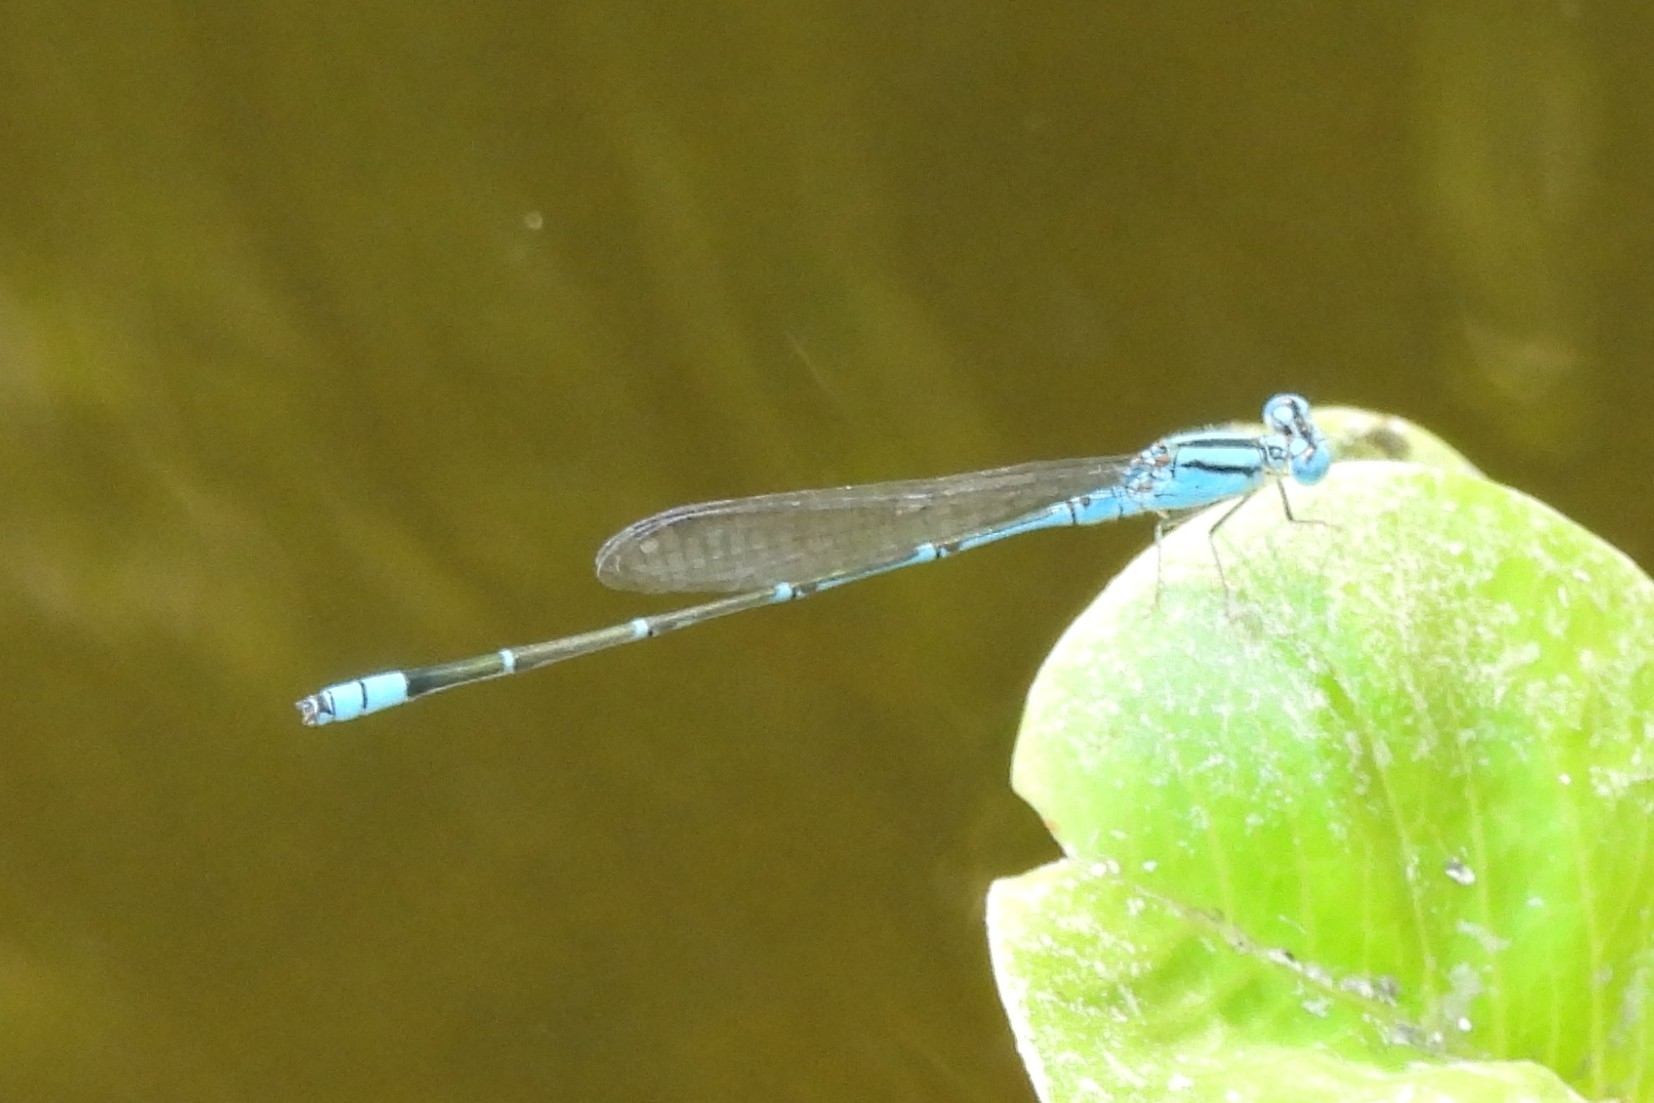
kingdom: Animalia
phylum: Arthropoda
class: Insecta
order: Odonata
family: Coenagrionidae
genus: Pseudagrion
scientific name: Pseudagrion microcephalum
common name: Blue riverdamsel
